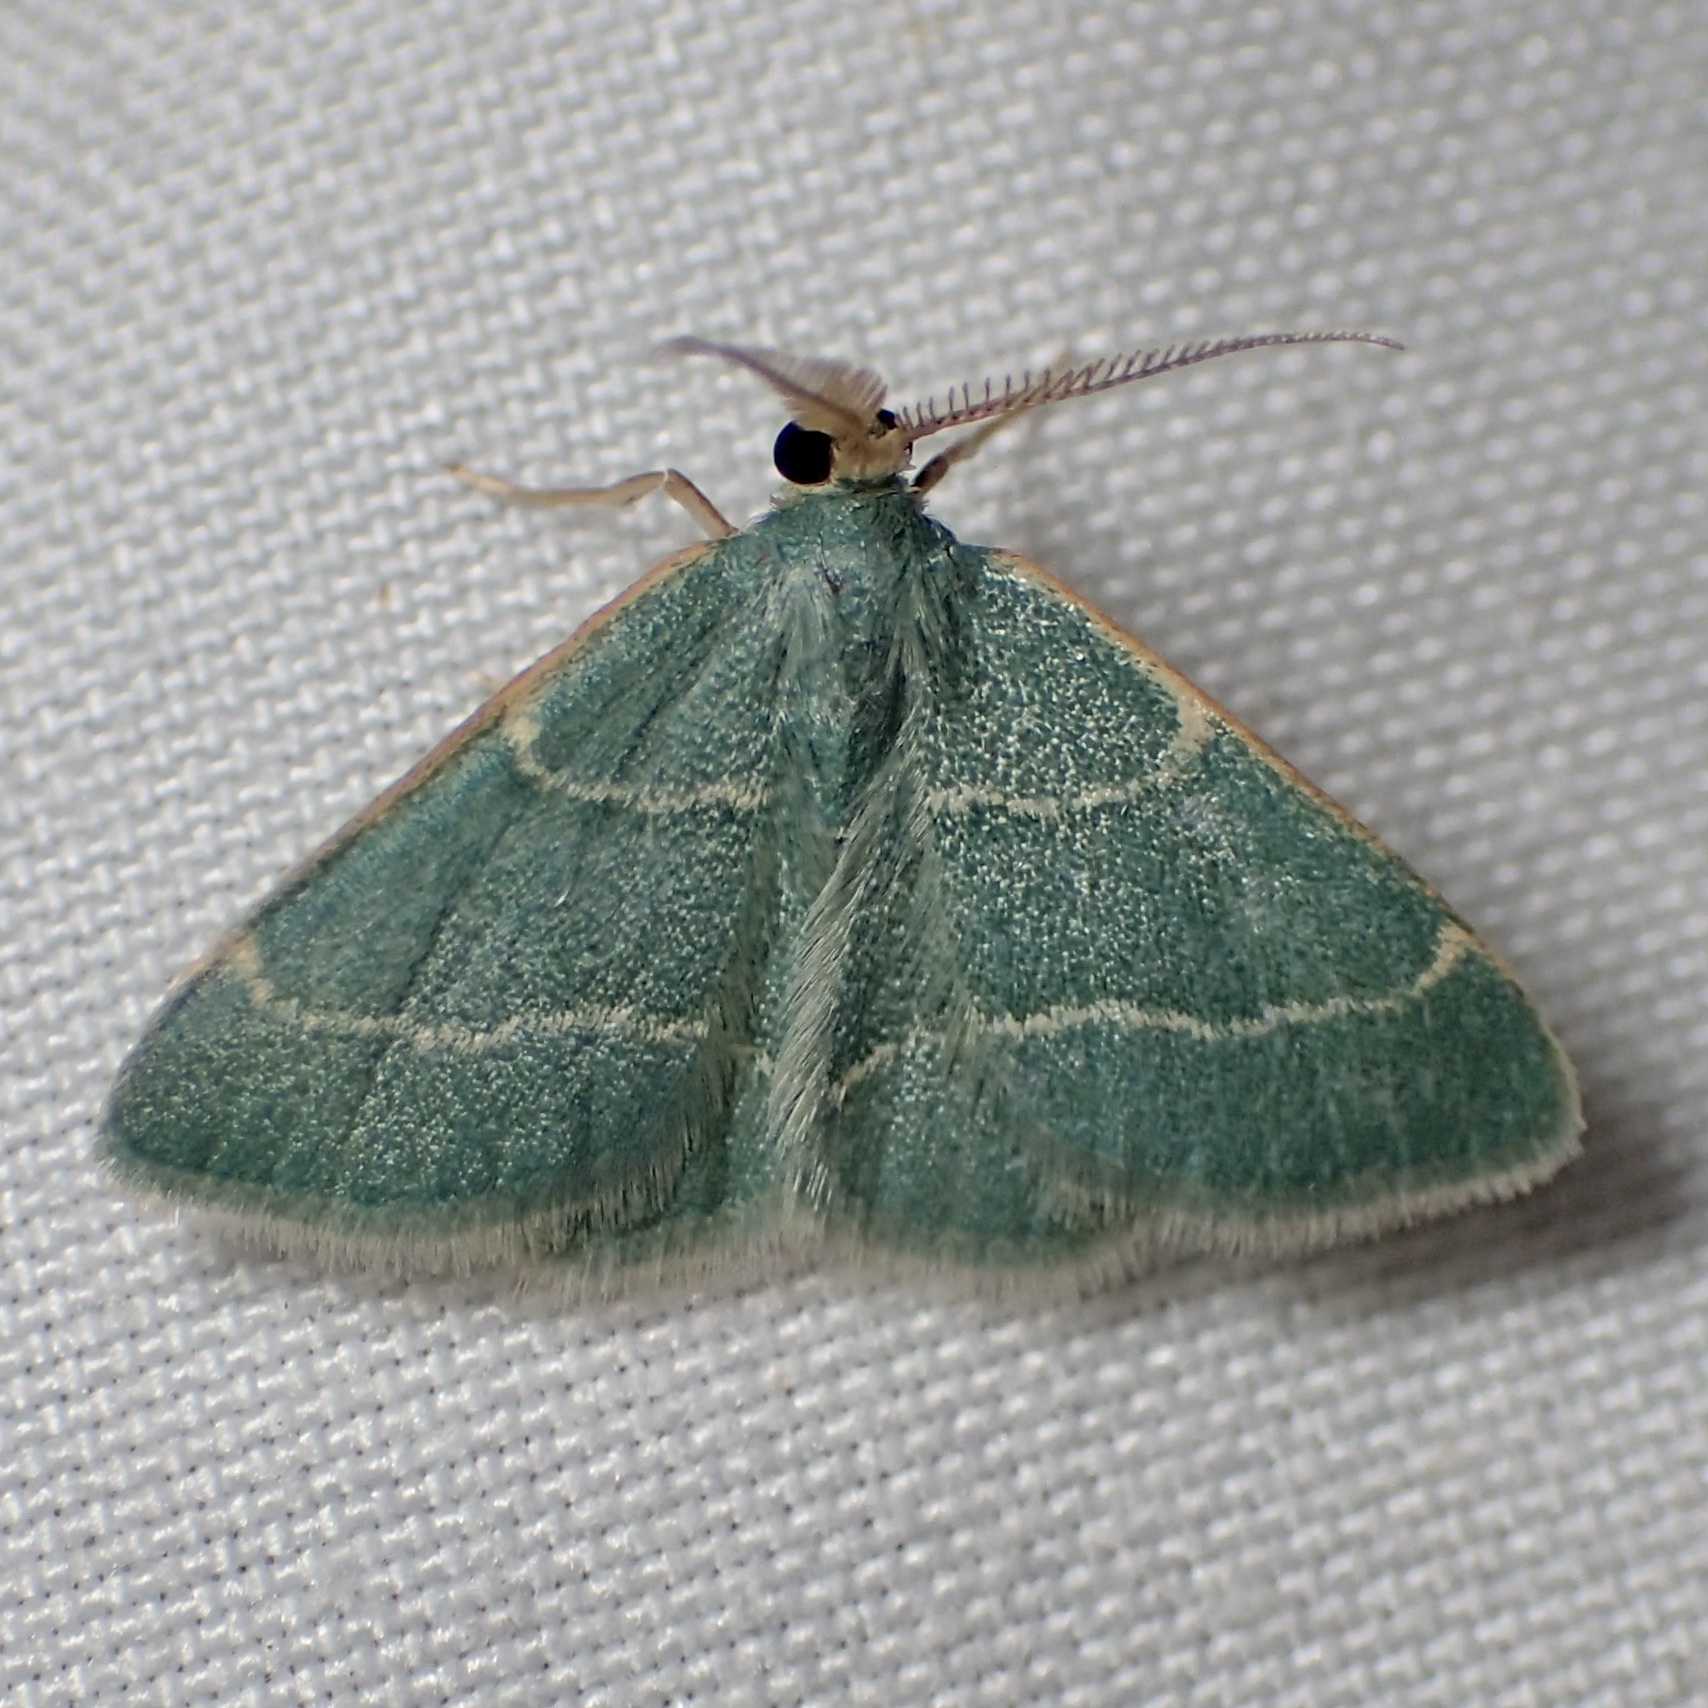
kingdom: Animalia
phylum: Arthropoda
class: Insecta
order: Lepidoptera
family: Geometridae
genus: Chlorochlamys
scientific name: Chlorochlamys phyllinaria
